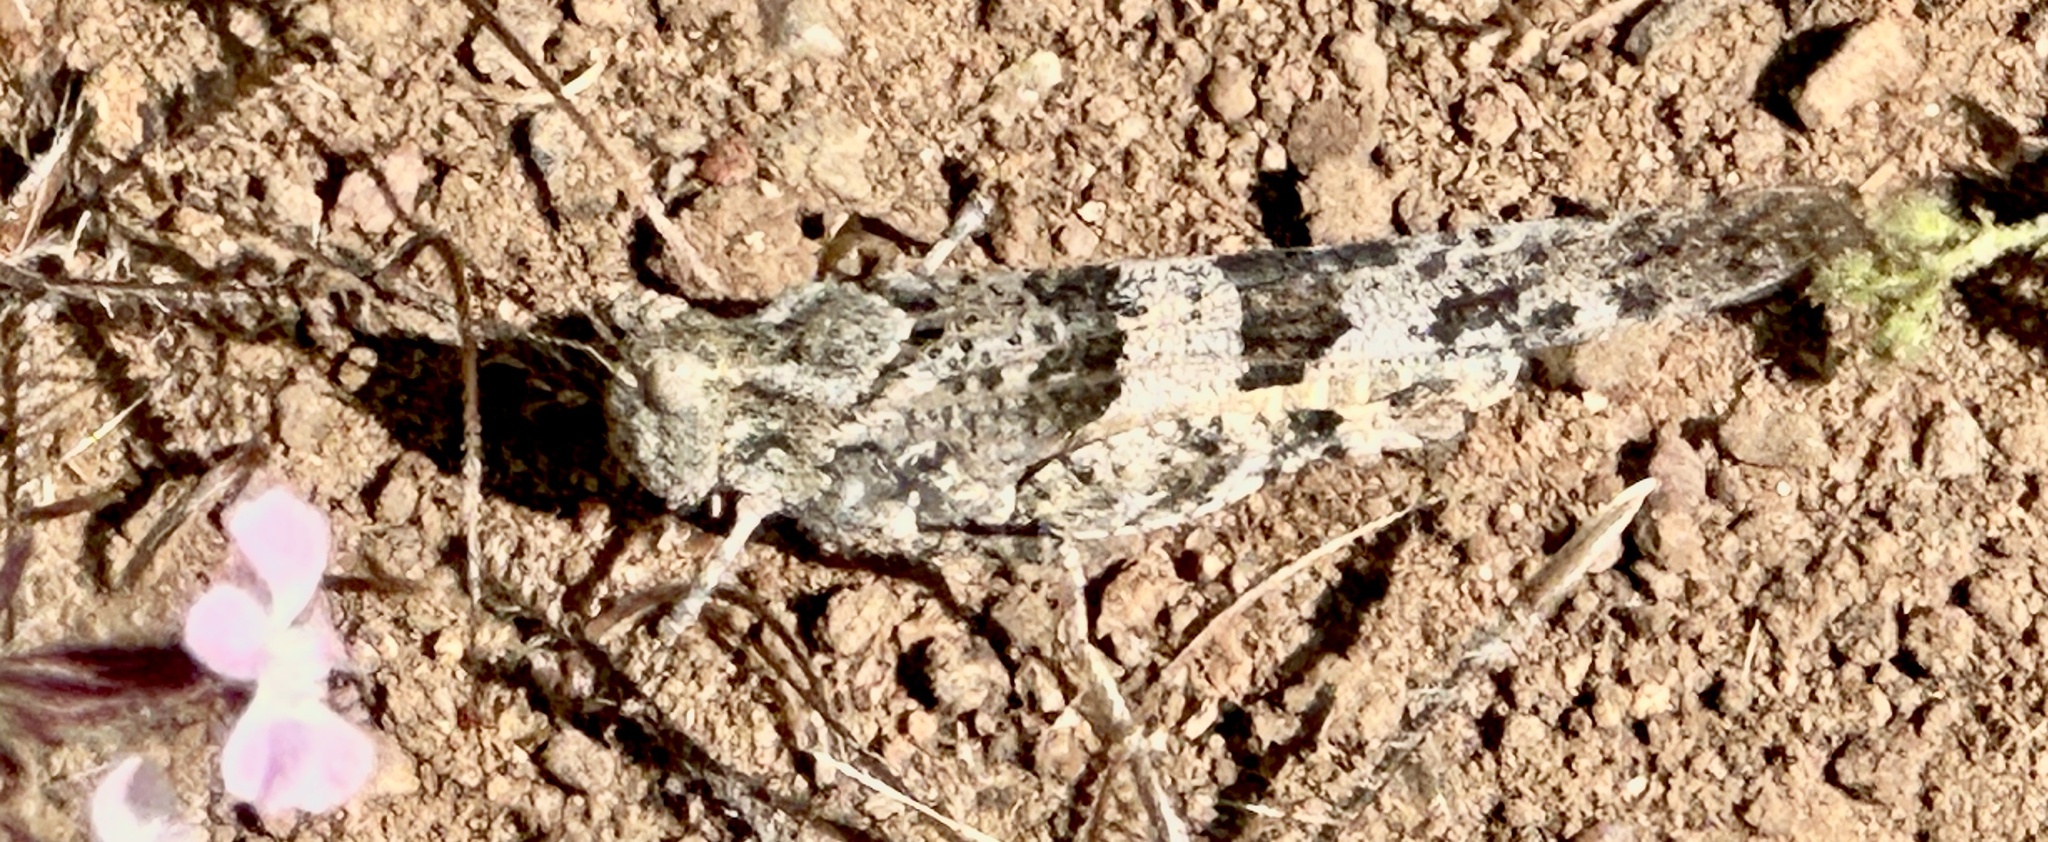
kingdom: Animalia
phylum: Arthropoda
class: Insecta
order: Orthoptera
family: Acrididae
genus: Trimerotropis
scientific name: Trimerotropis pallidipennis
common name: Pallid-winged grasshopper
